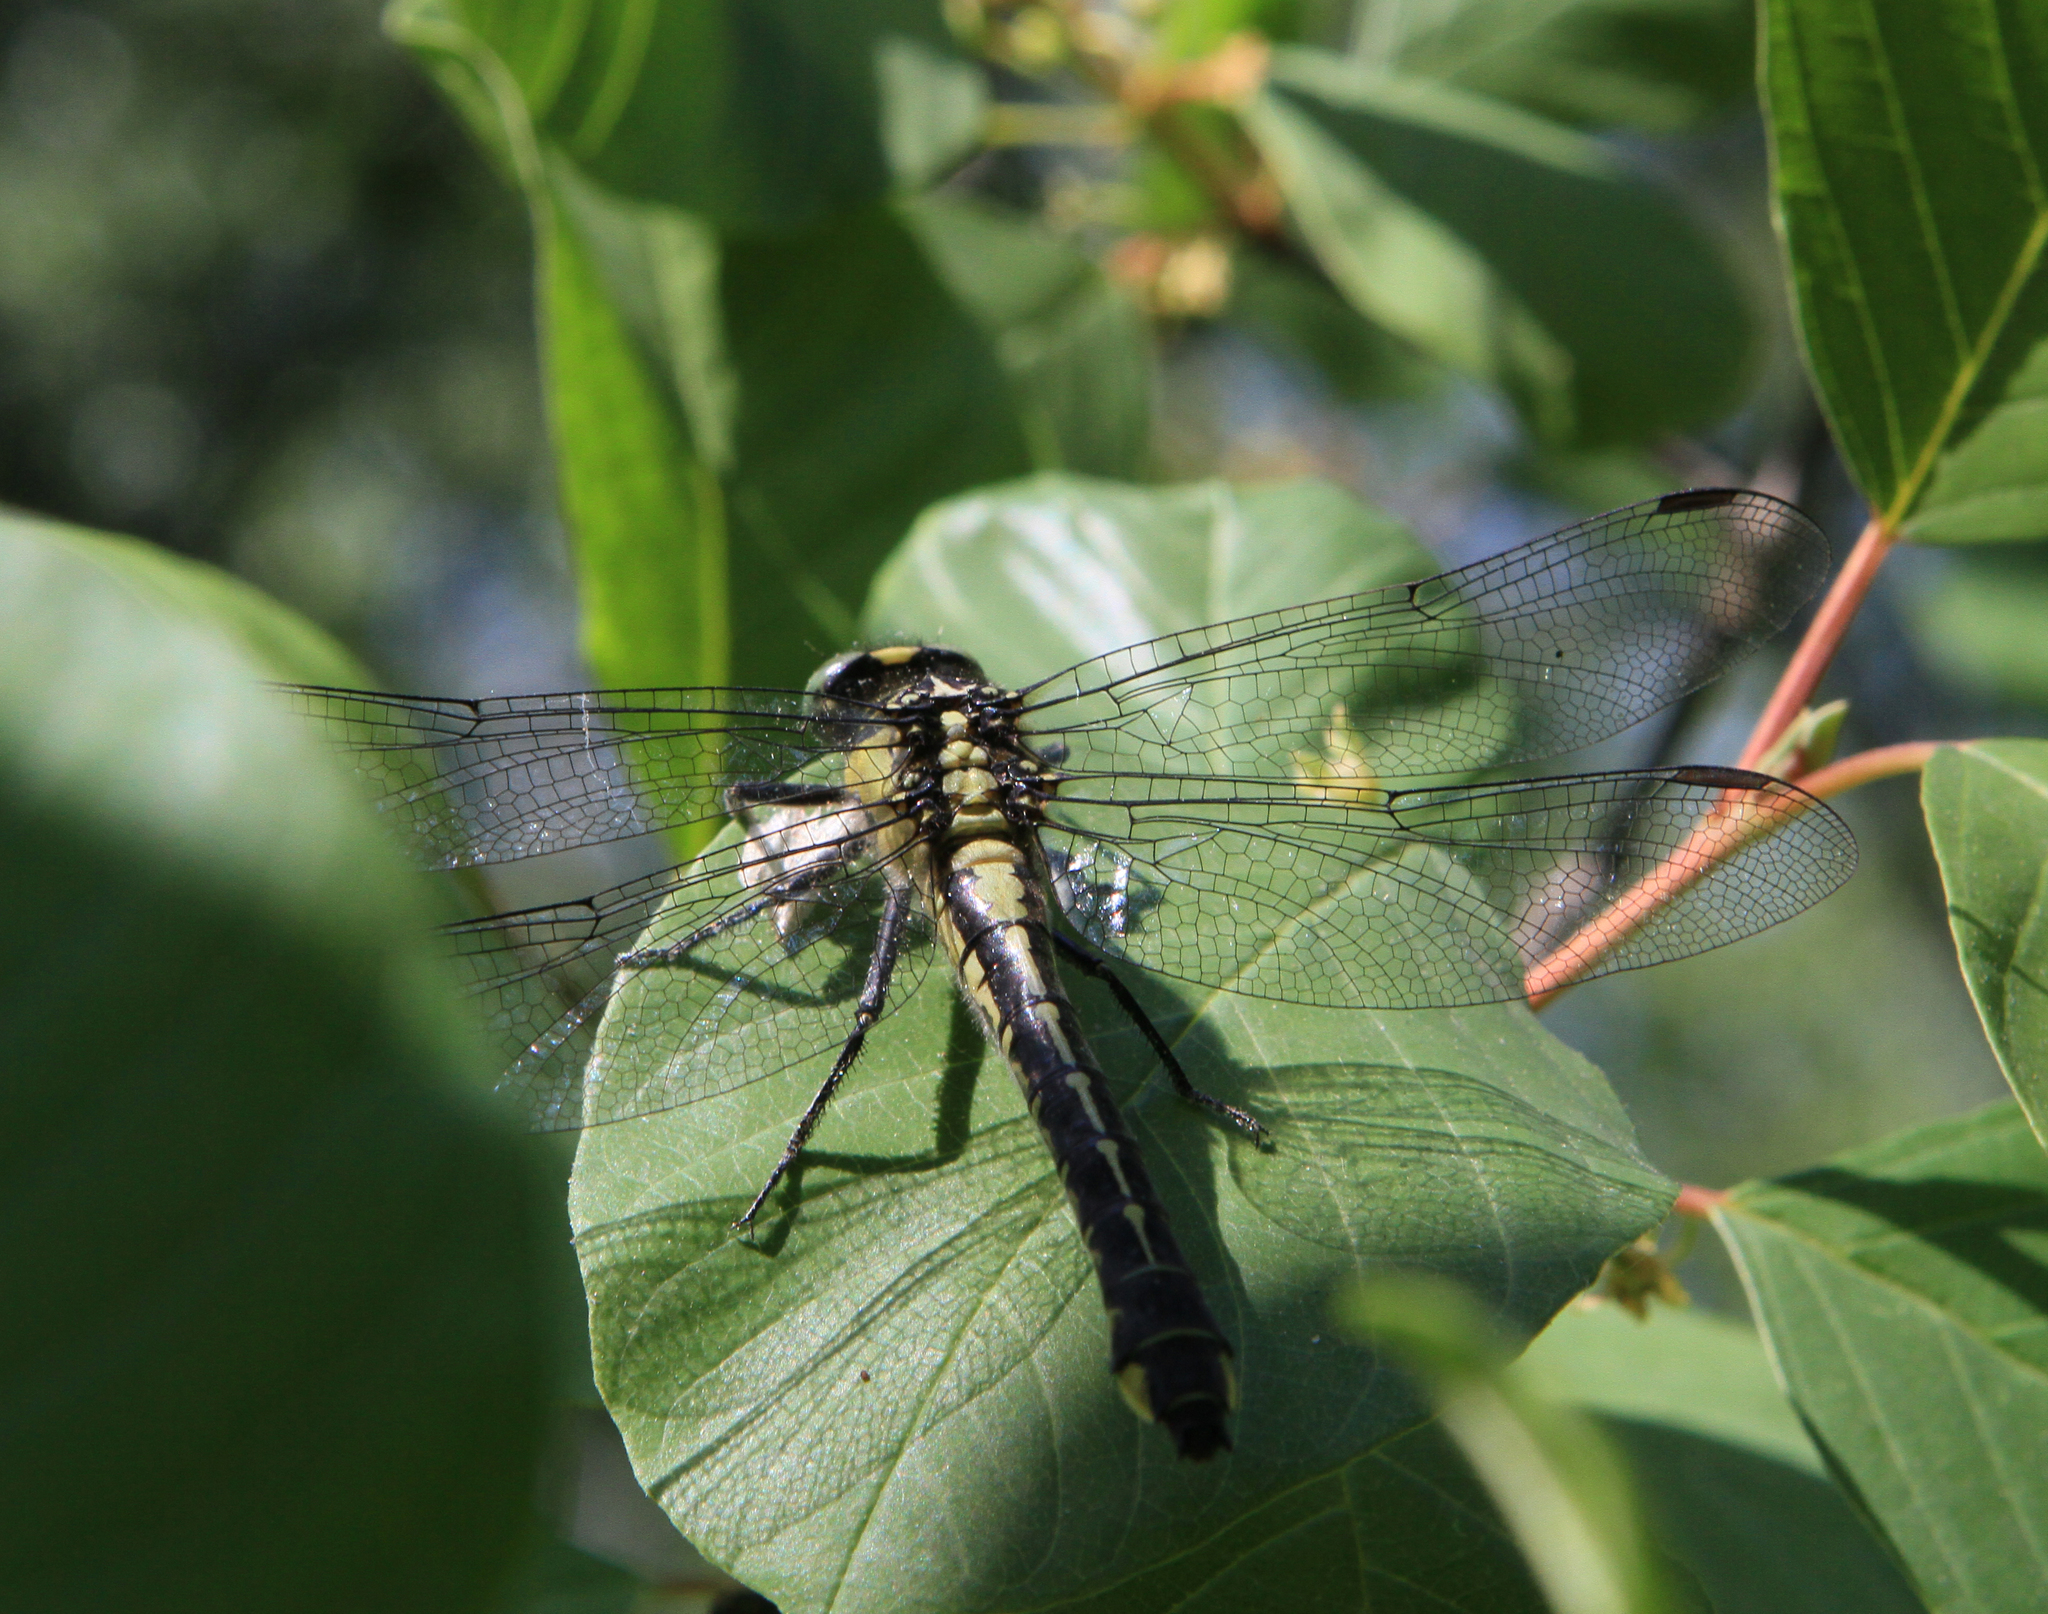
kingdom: Animalia
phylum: Arthropoda
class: Insecta
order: Odonata
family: Gomphidae
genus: Gomphus
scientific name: Gomphus vulgatissimus
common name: Club-tailed dragonfly
